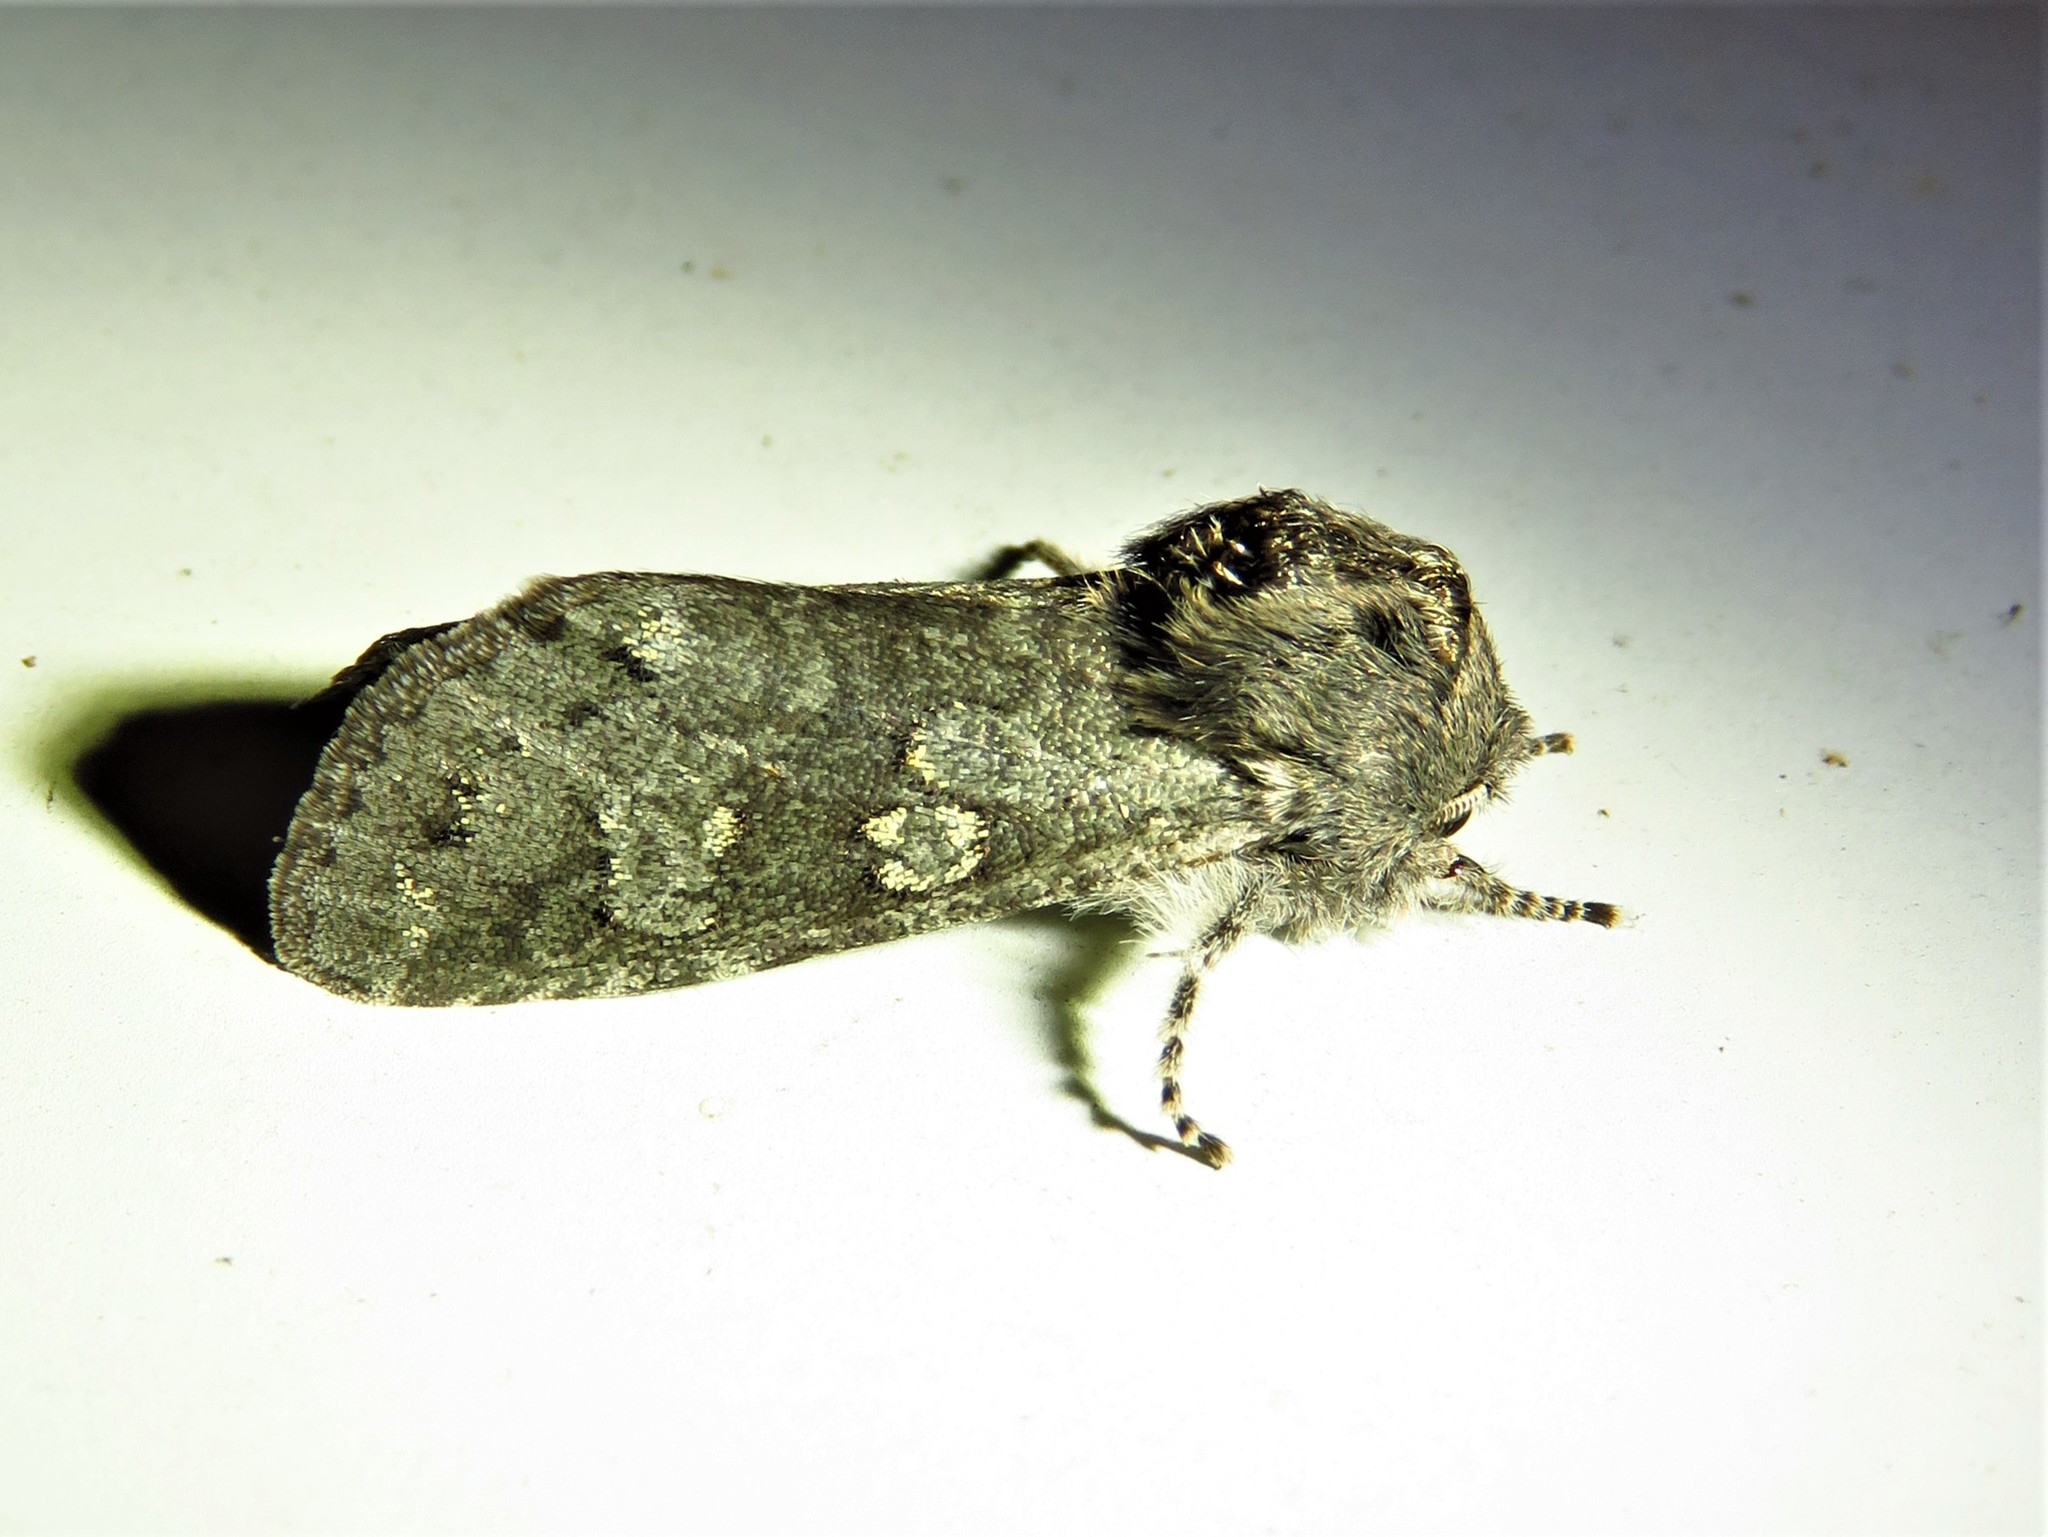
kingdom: Animalia
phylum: Arthropoda
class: Insecta
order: Lepidoptera
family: Noctuidae
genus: Psaphida
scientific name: Psaphida rolandi
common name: Roland's sallow
